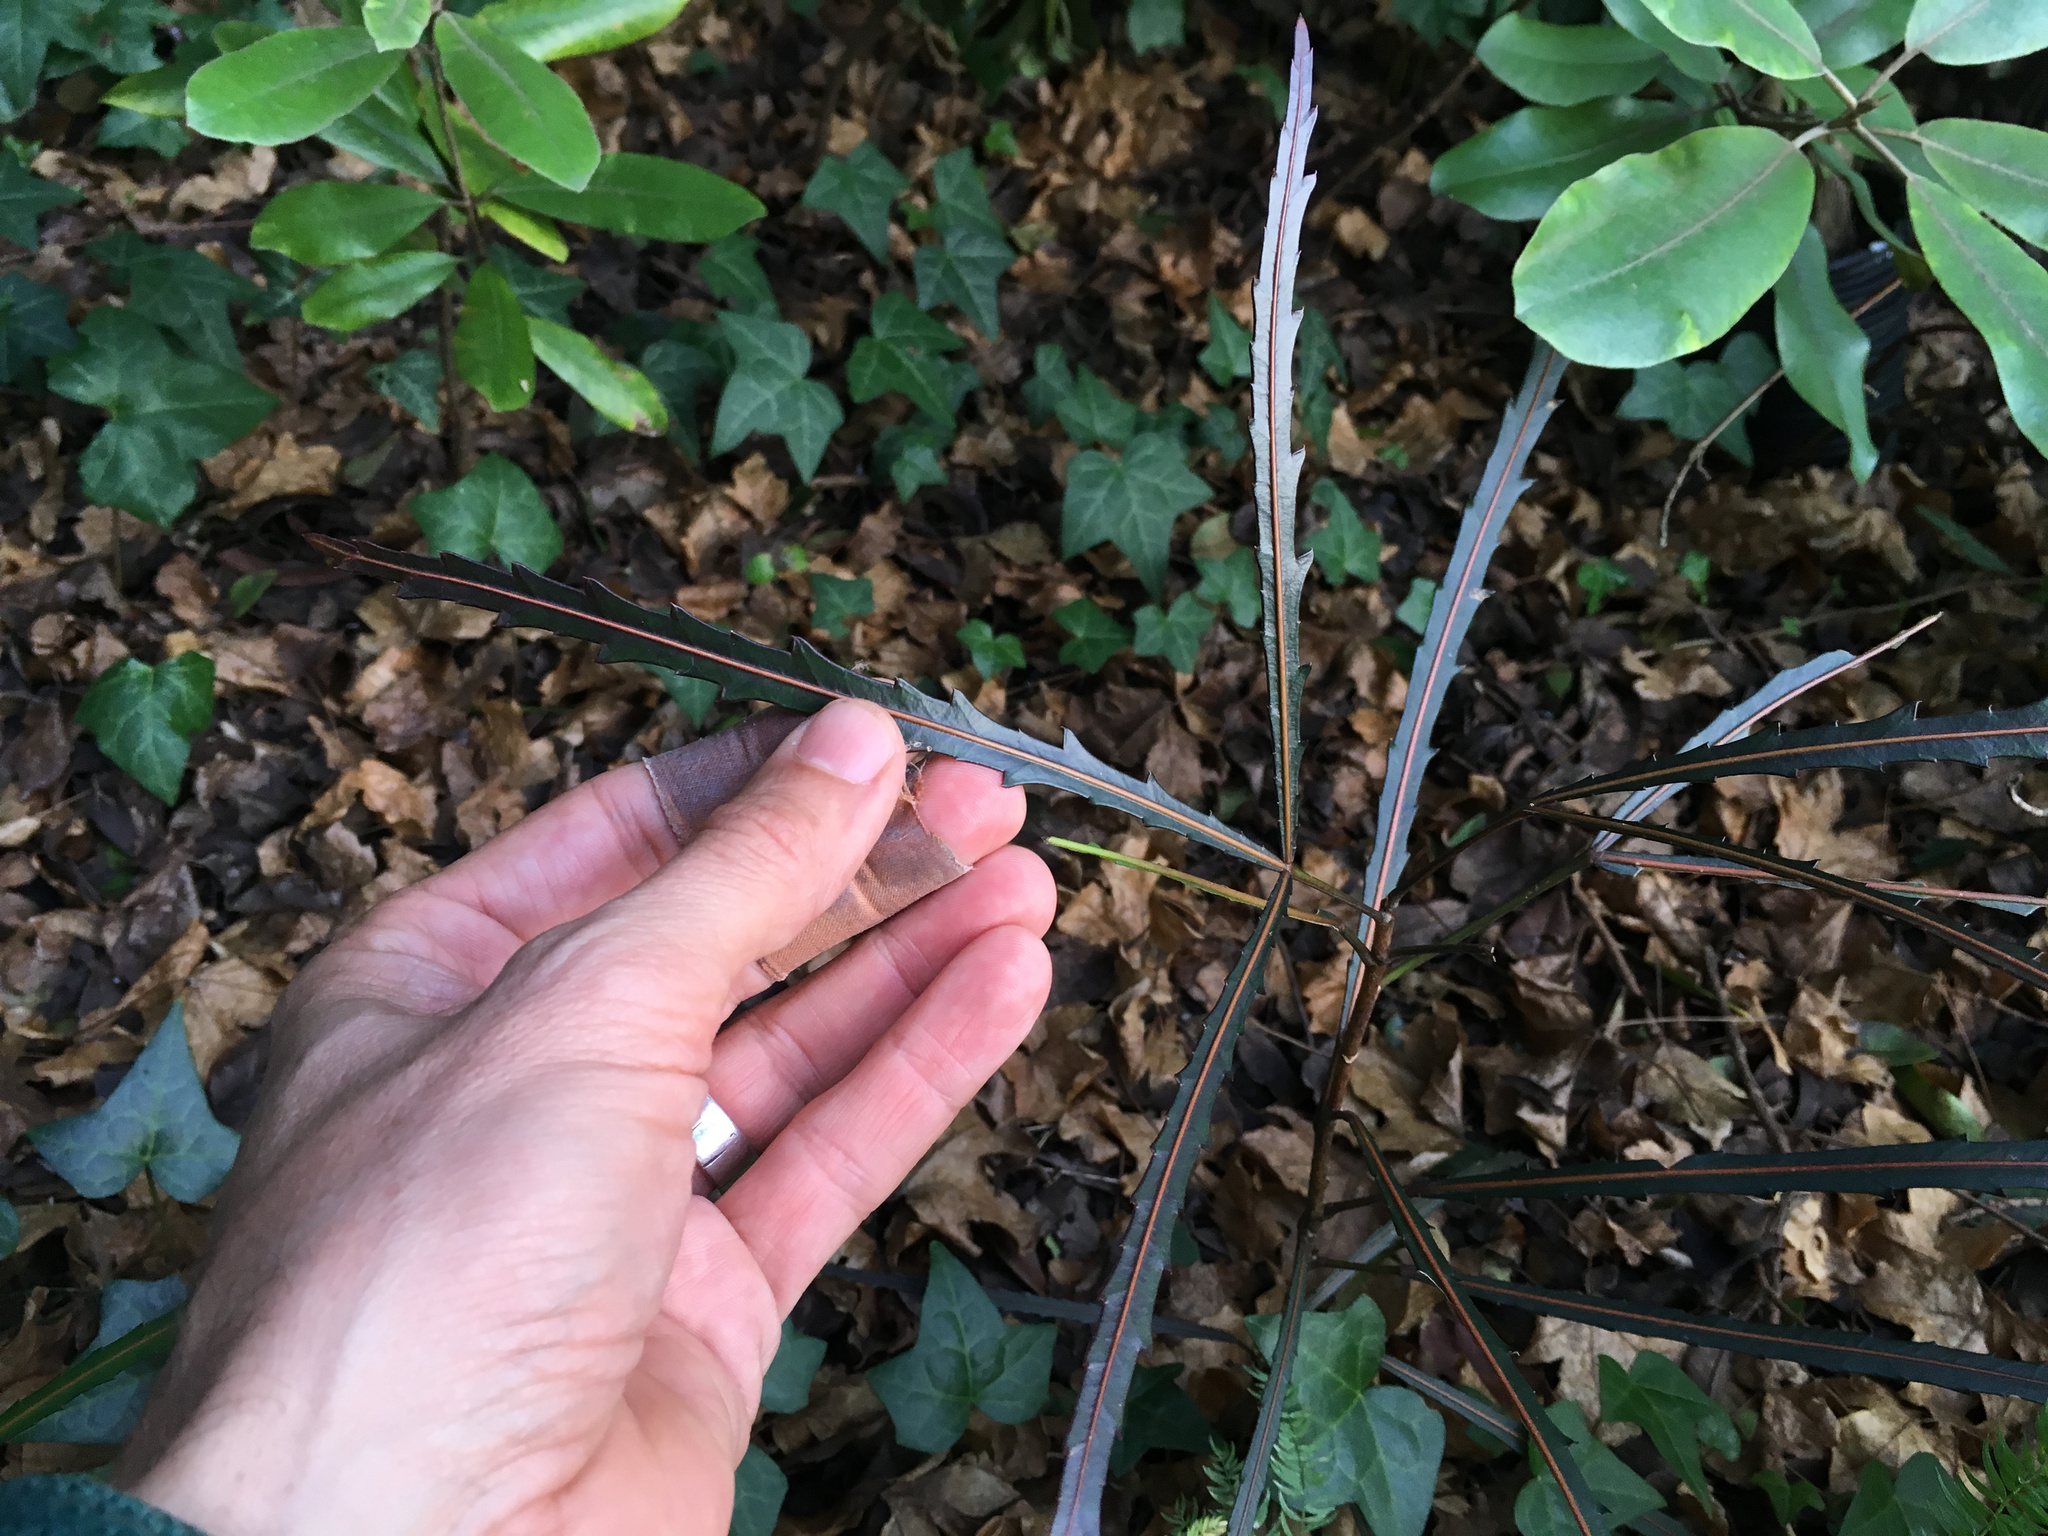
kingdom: Plantae
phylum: Tracheophyta
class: Magnoliopsida
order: Apiales
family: Araliaceae
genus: Pseudopanax
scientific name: Pseudopanax
